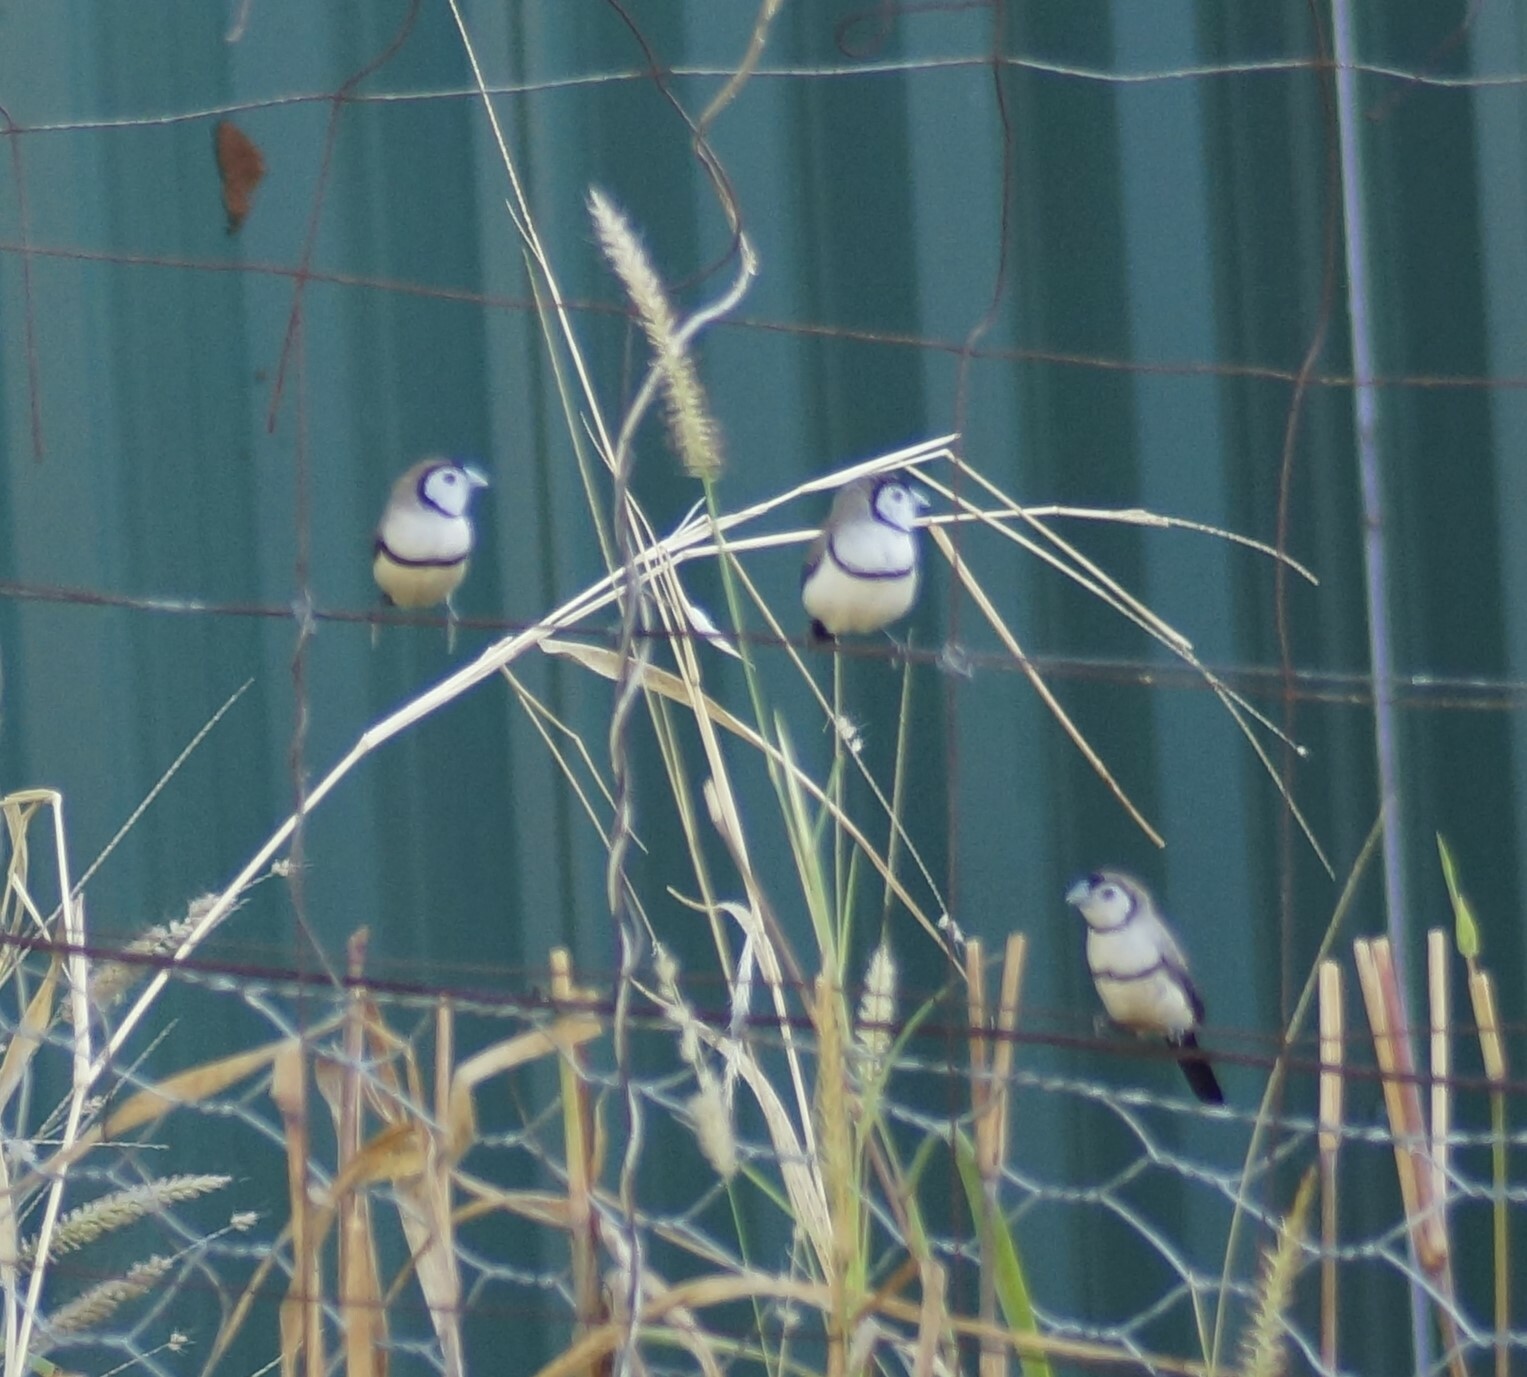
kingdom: Animalia
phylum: Chordata
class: Aves
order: Passeriformes
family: Estrildidae
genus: Taeniopygia
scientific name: Taeniopygia bichenovii
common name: Double-barred finch
